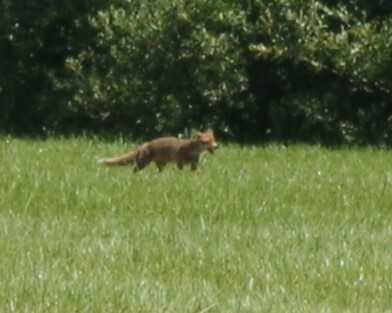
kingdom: Animalia
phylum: Chordata
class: Mammalia
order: Carnivora
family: Canidae
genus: Vulpes
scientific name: Vulpes vulpes
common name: Red fox
